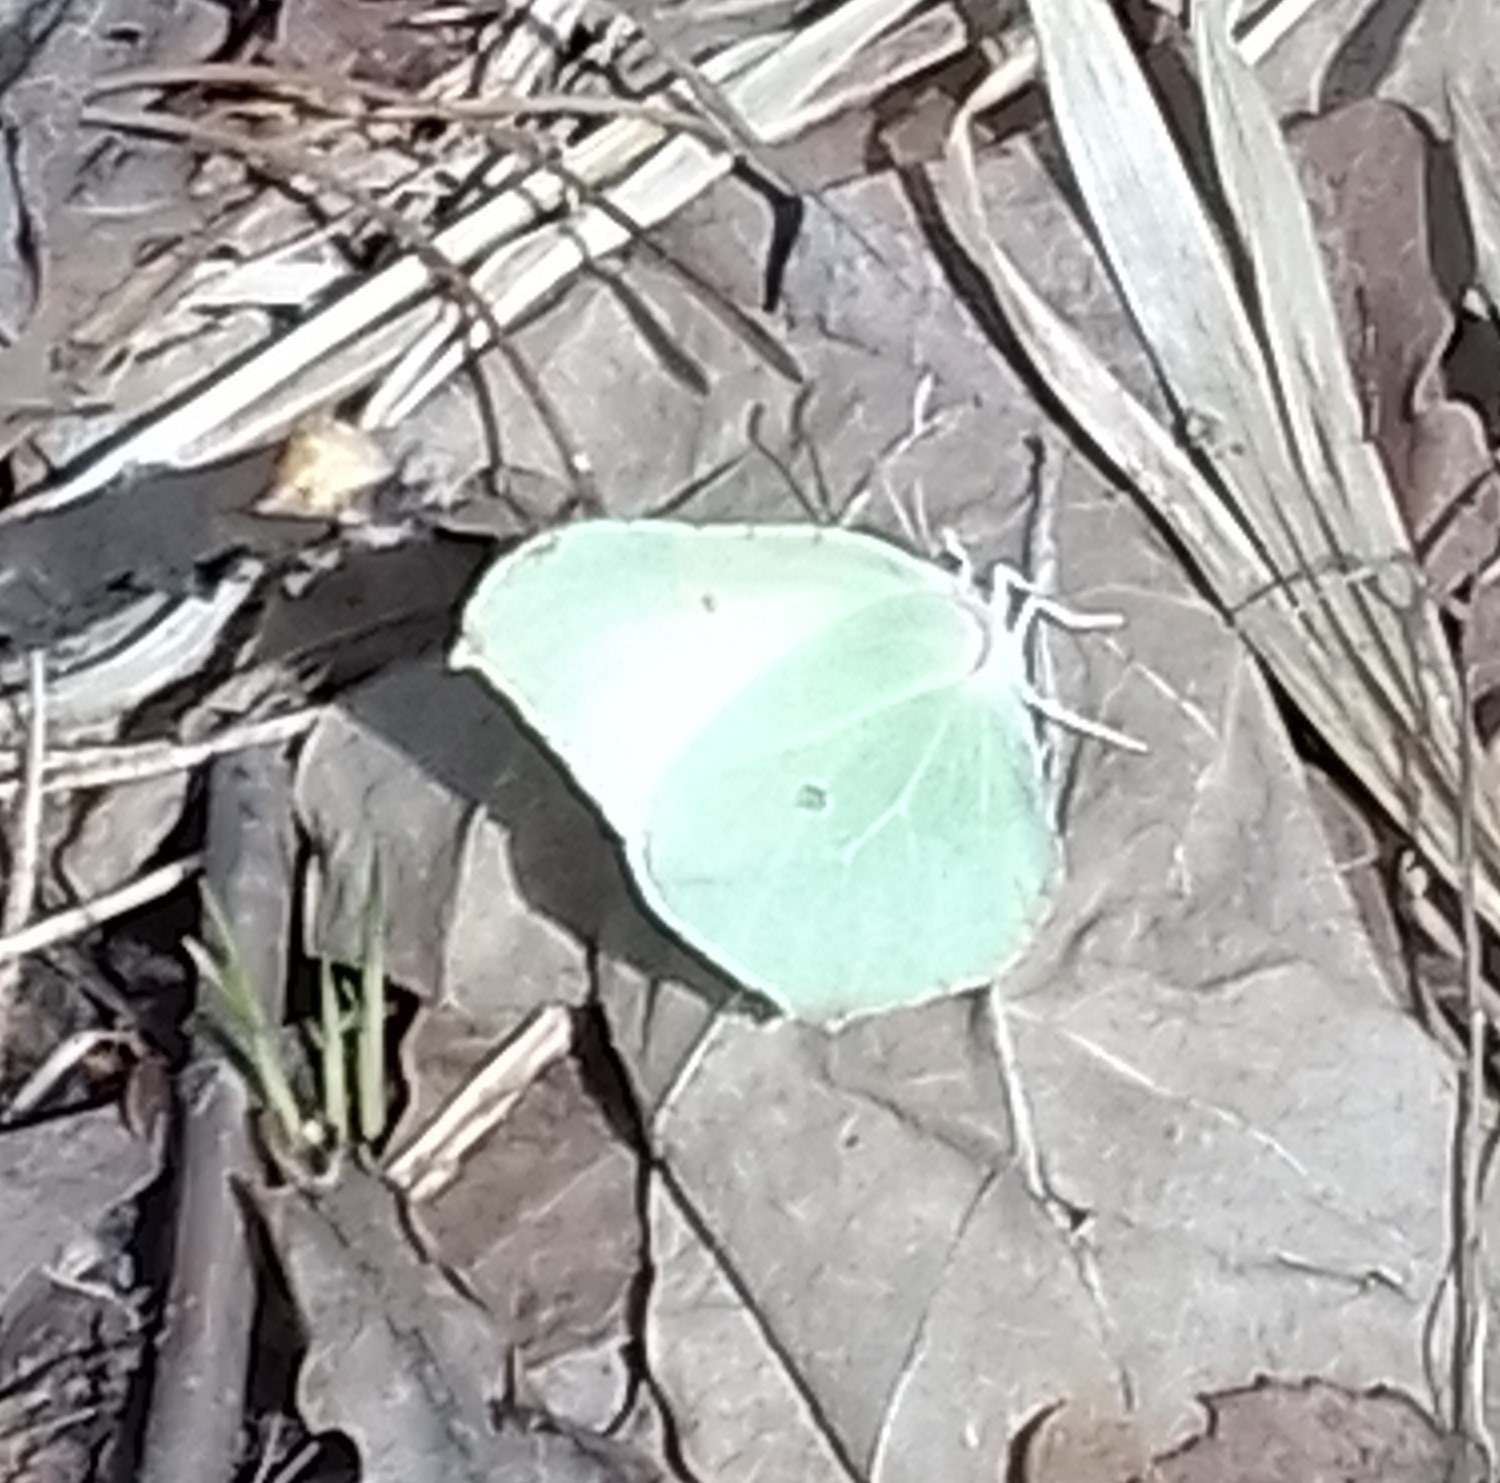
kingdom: Animalia
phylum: Arthropoda
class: Insecta
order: Lepidoptera
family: Pieridae
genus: Gonepteryx
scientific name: Gonepteryx rhamni
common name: Brimstone
